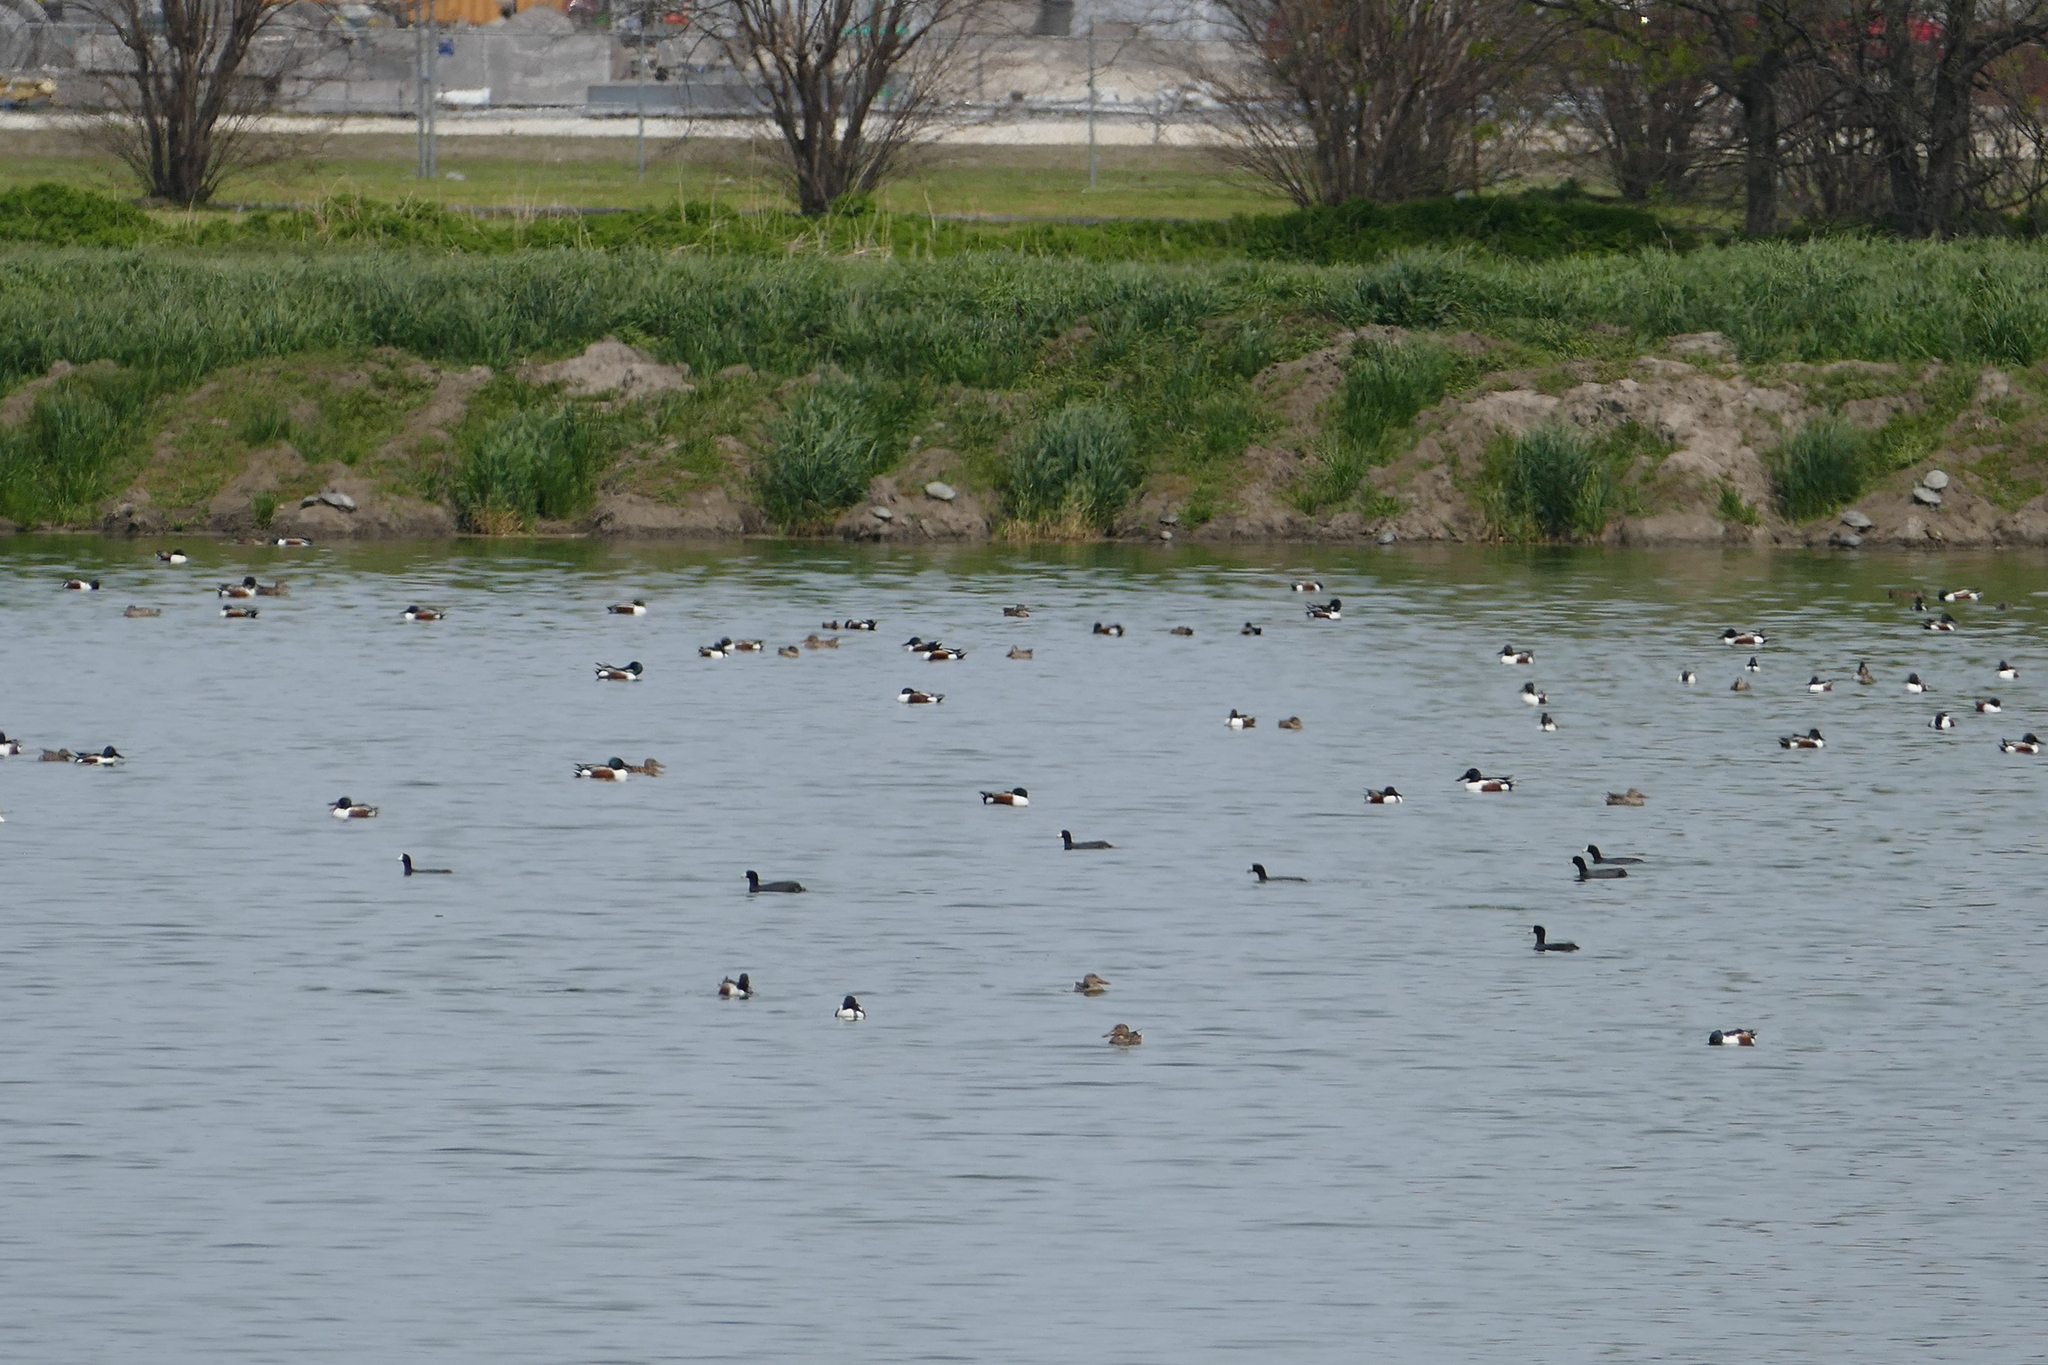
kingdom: Animalia
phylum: Chordata
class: Aves
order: Anseriformes
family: Anatidae
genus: Spatula
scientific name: Spatula clypeata
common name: Northern shoveler
